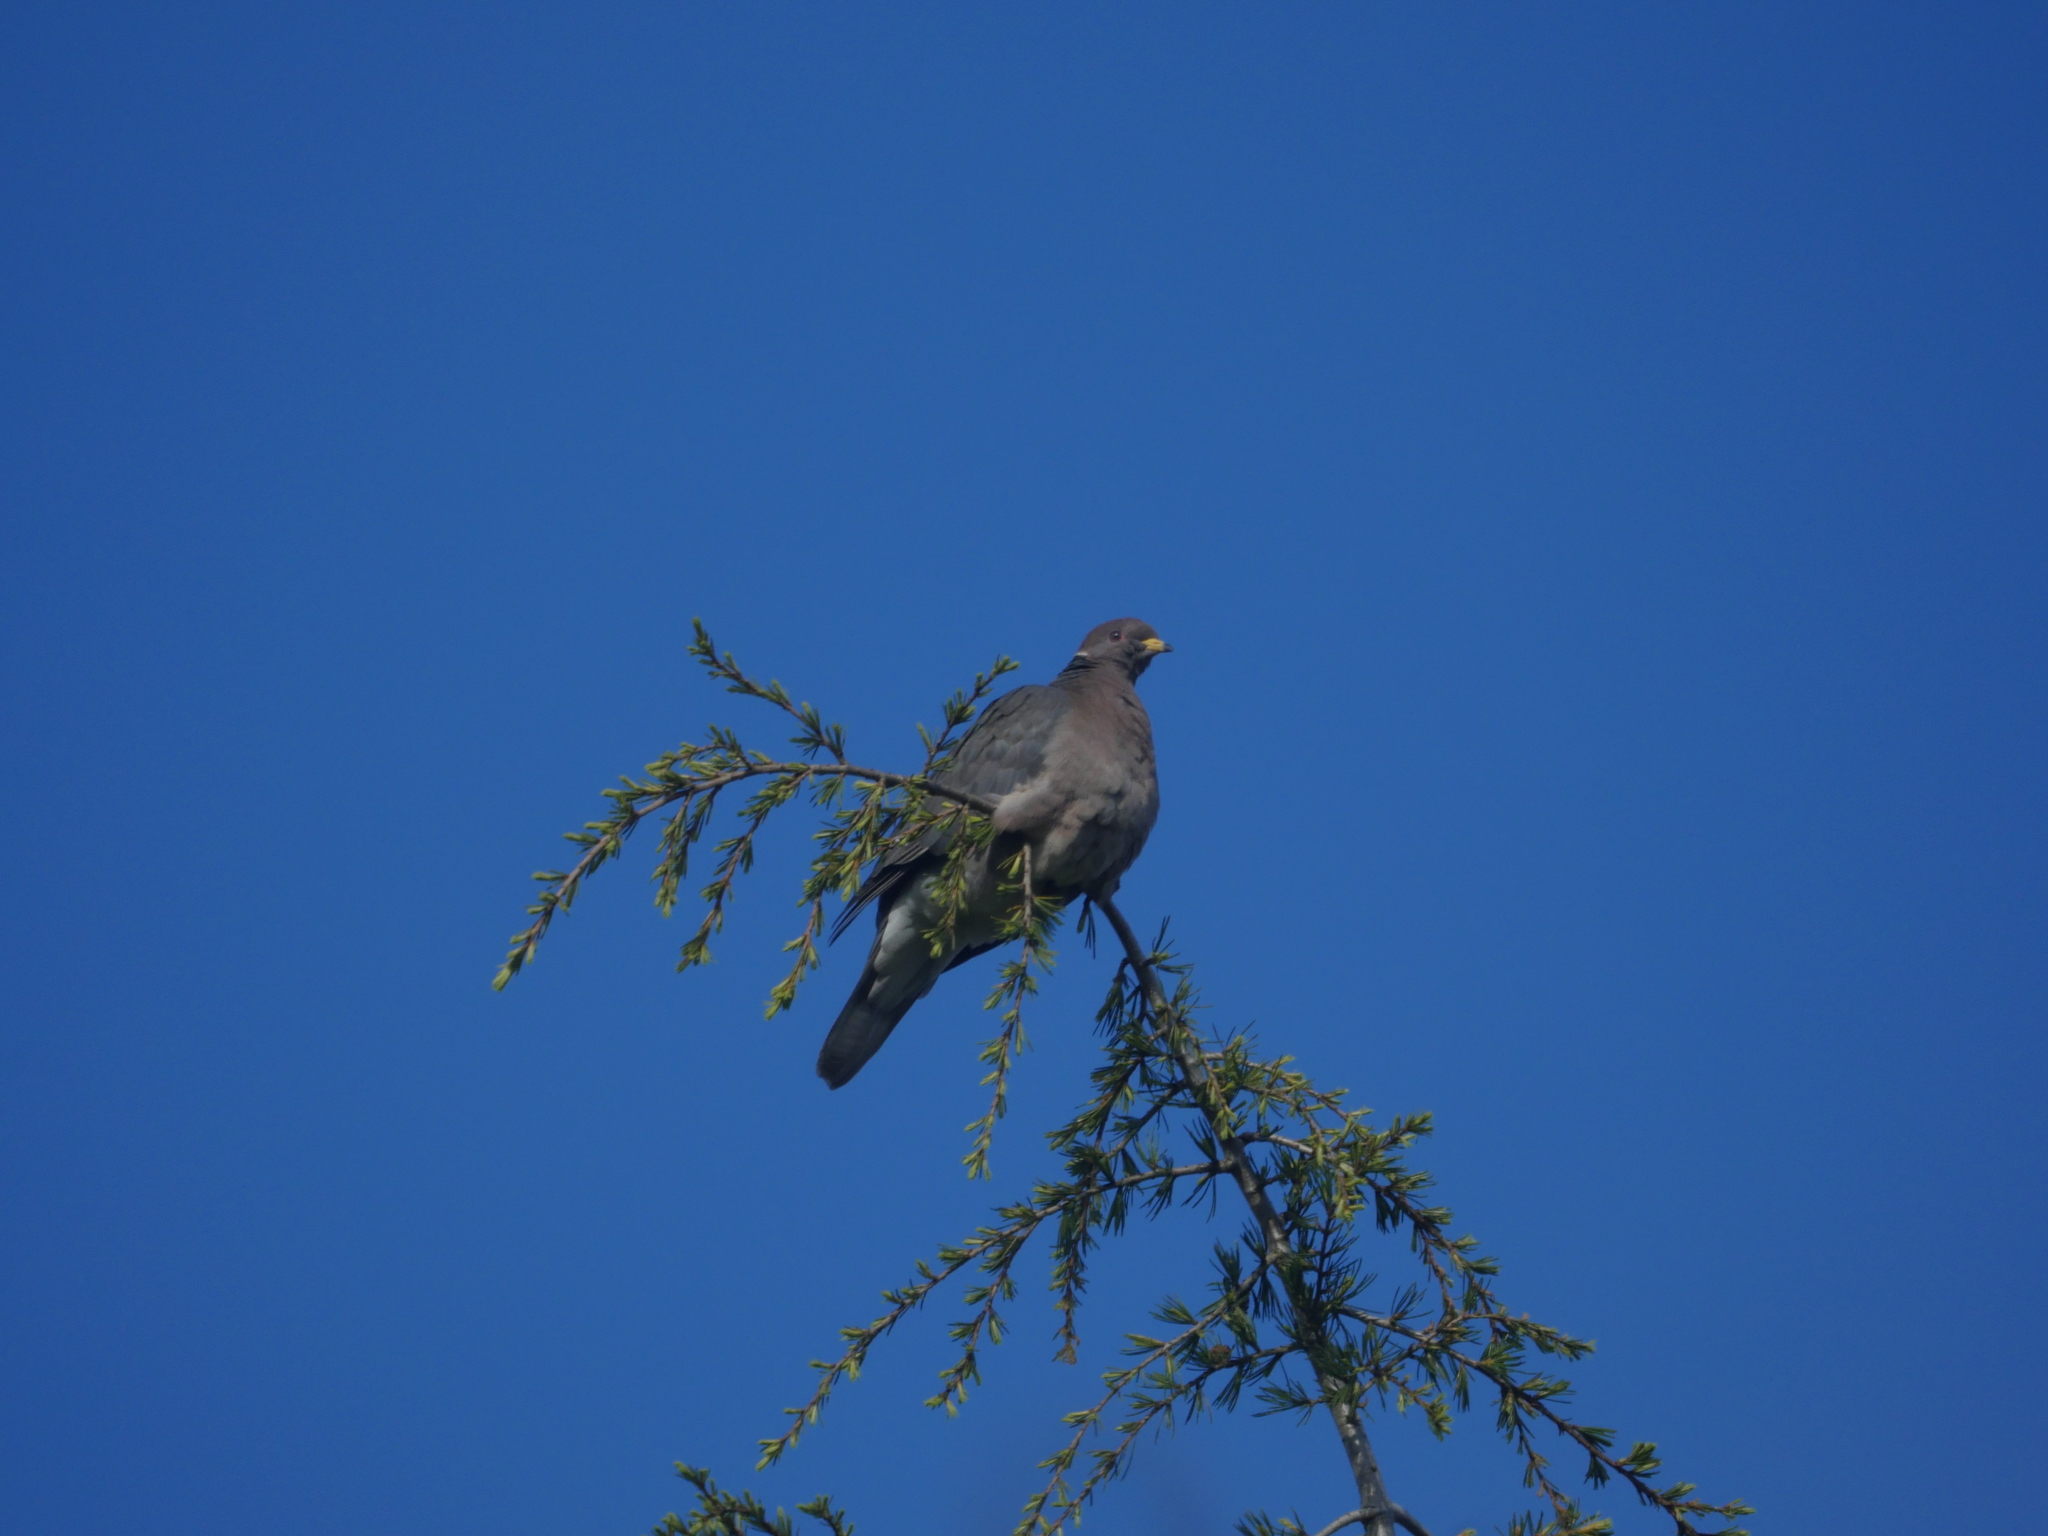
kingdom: Animalia
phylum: Chordata
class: Aves
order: Columbiformes
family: Columbidae
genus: Patagioenas
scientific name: Patagioenas fasciata
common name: Band-tailed pigeon
